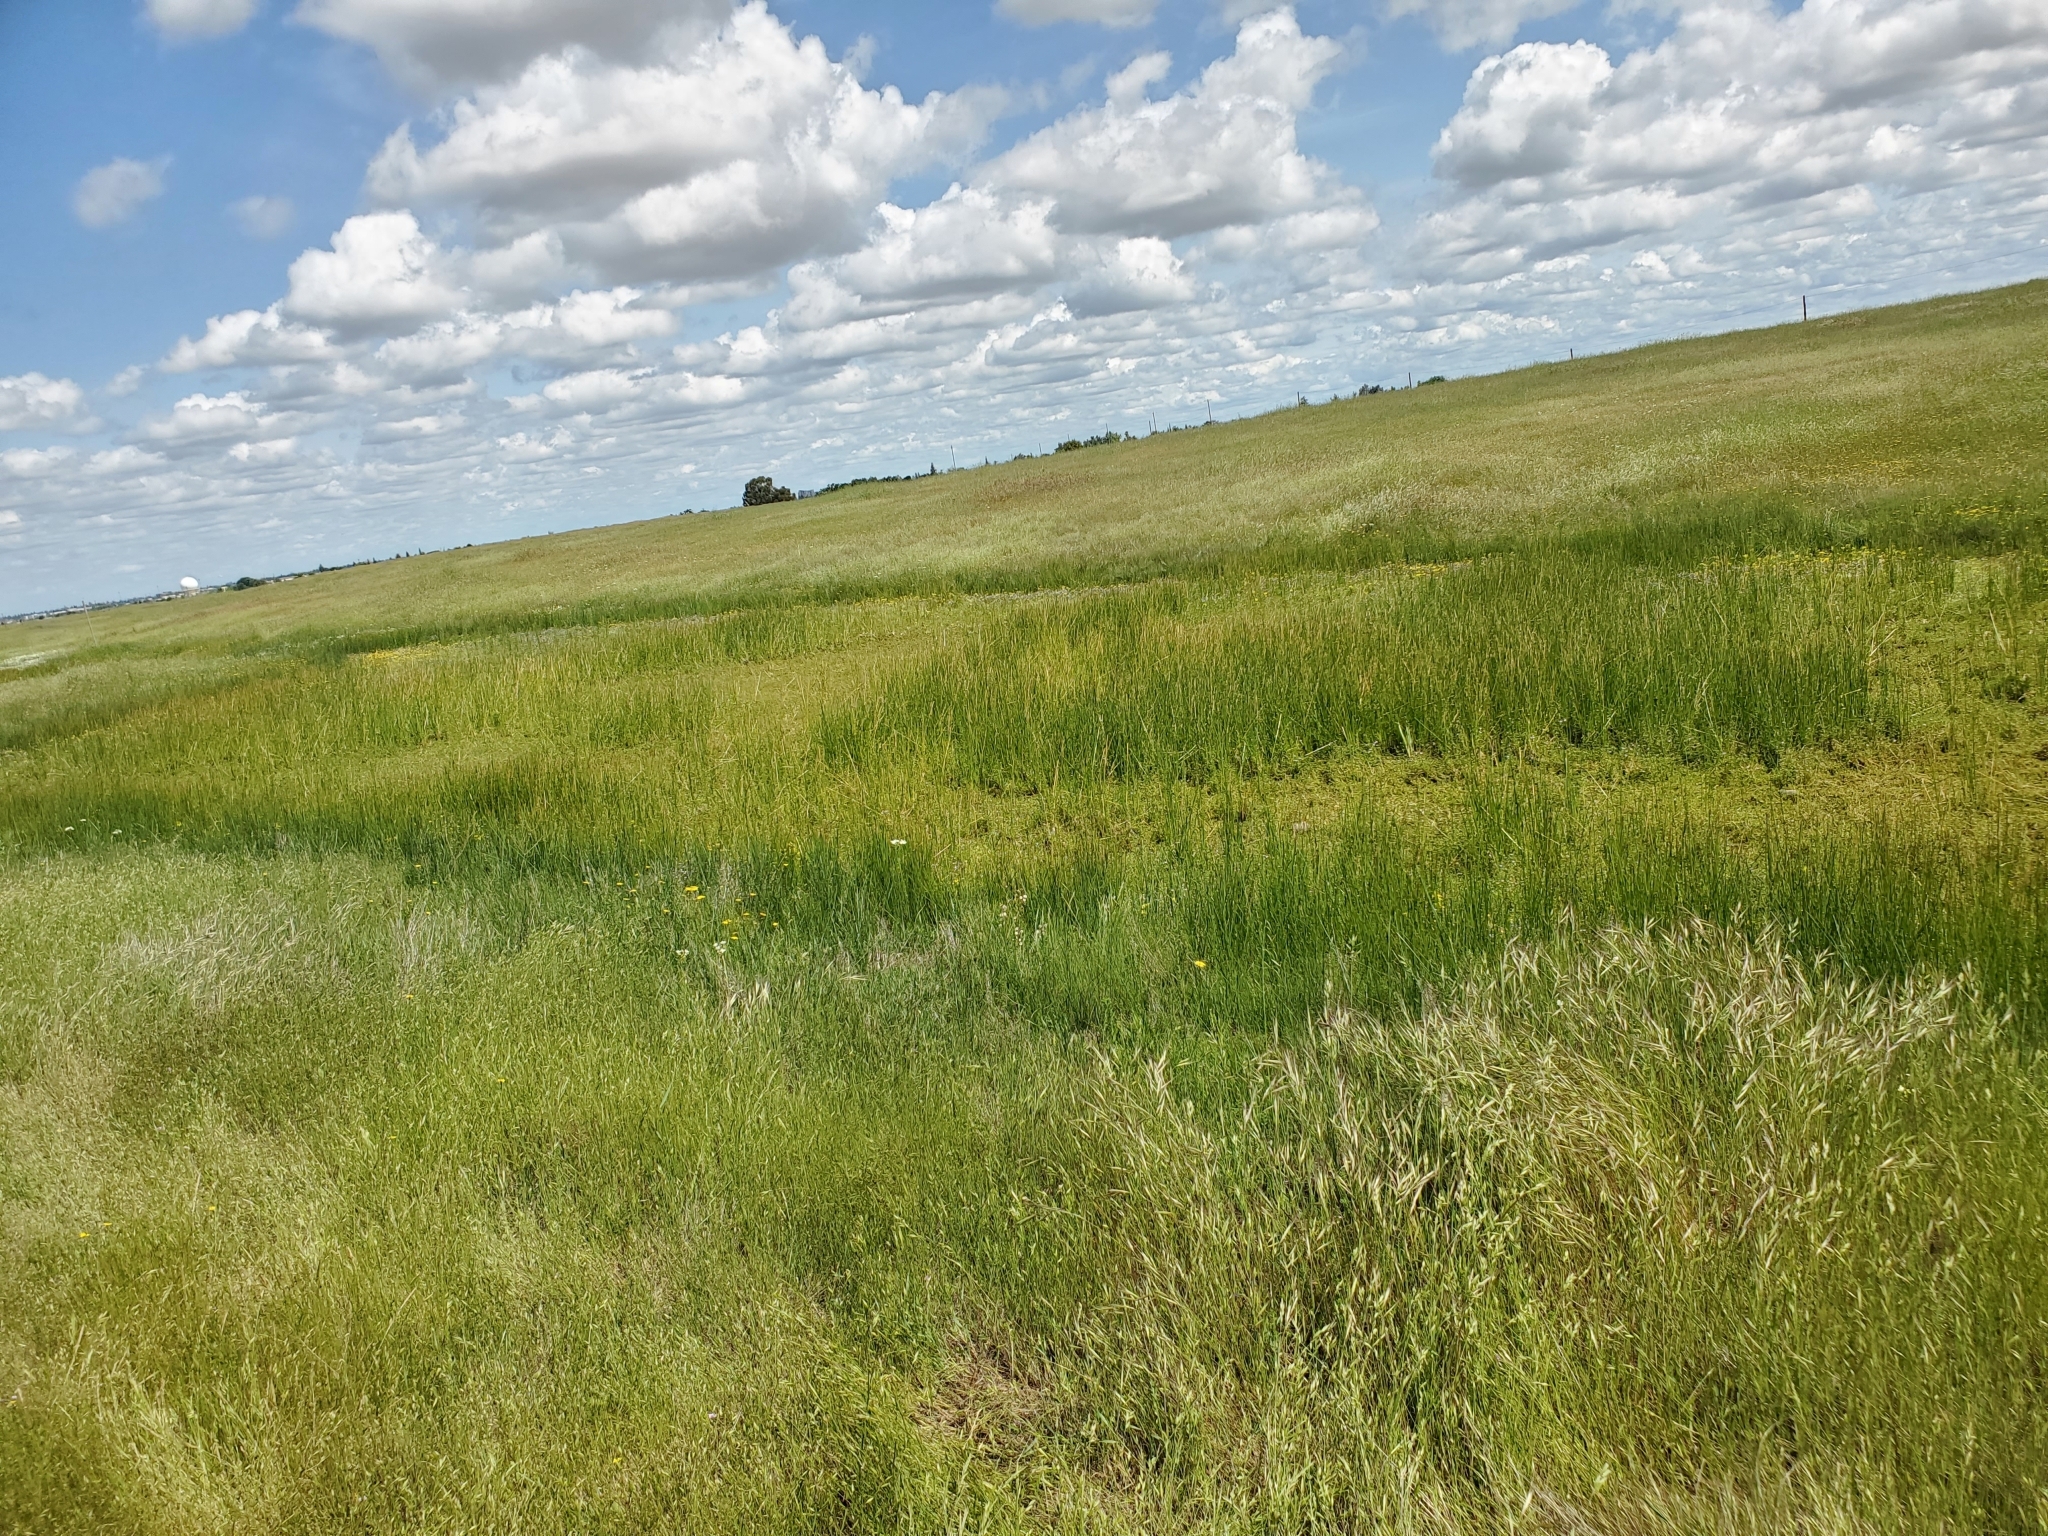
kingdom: Plantae
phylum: Tracheophyta
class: Liliopsida
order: Poales
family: Cyperaceae
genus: Eleocharis
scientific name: Eleocharis macrostachya
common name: Pale spikerush
